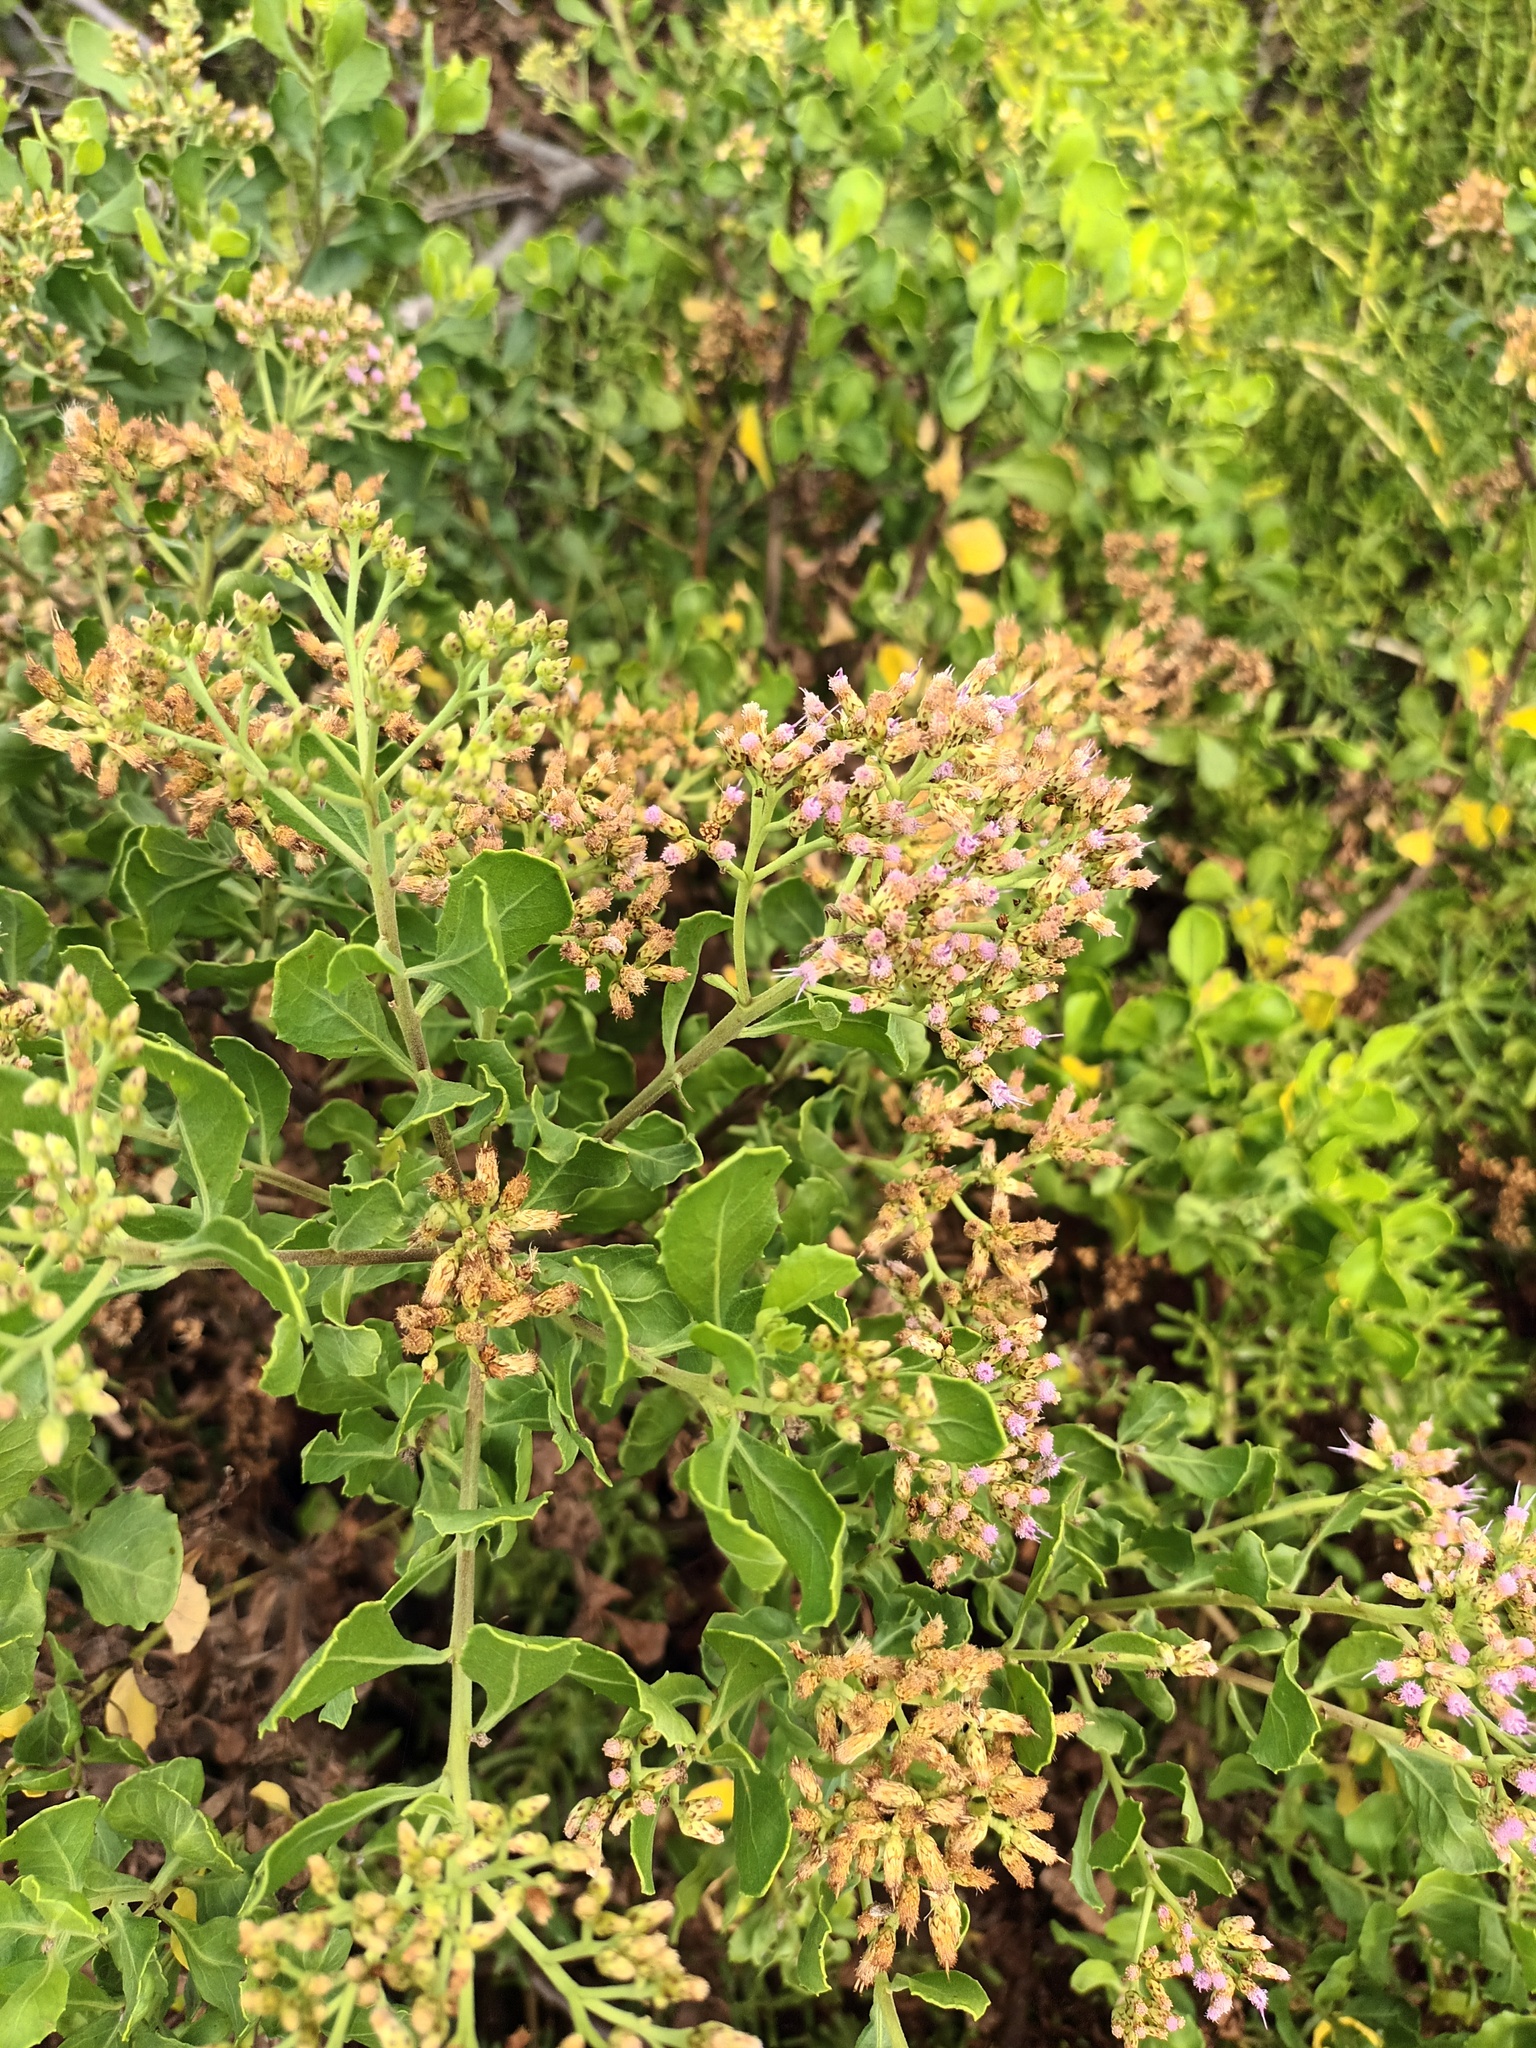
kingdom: Plantae
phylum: Tracheophyta
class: Magnoliopsida
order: Asterales
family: Asteraceae
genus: Pluchea
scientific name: Pluchea indica
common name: Indian fleabane
